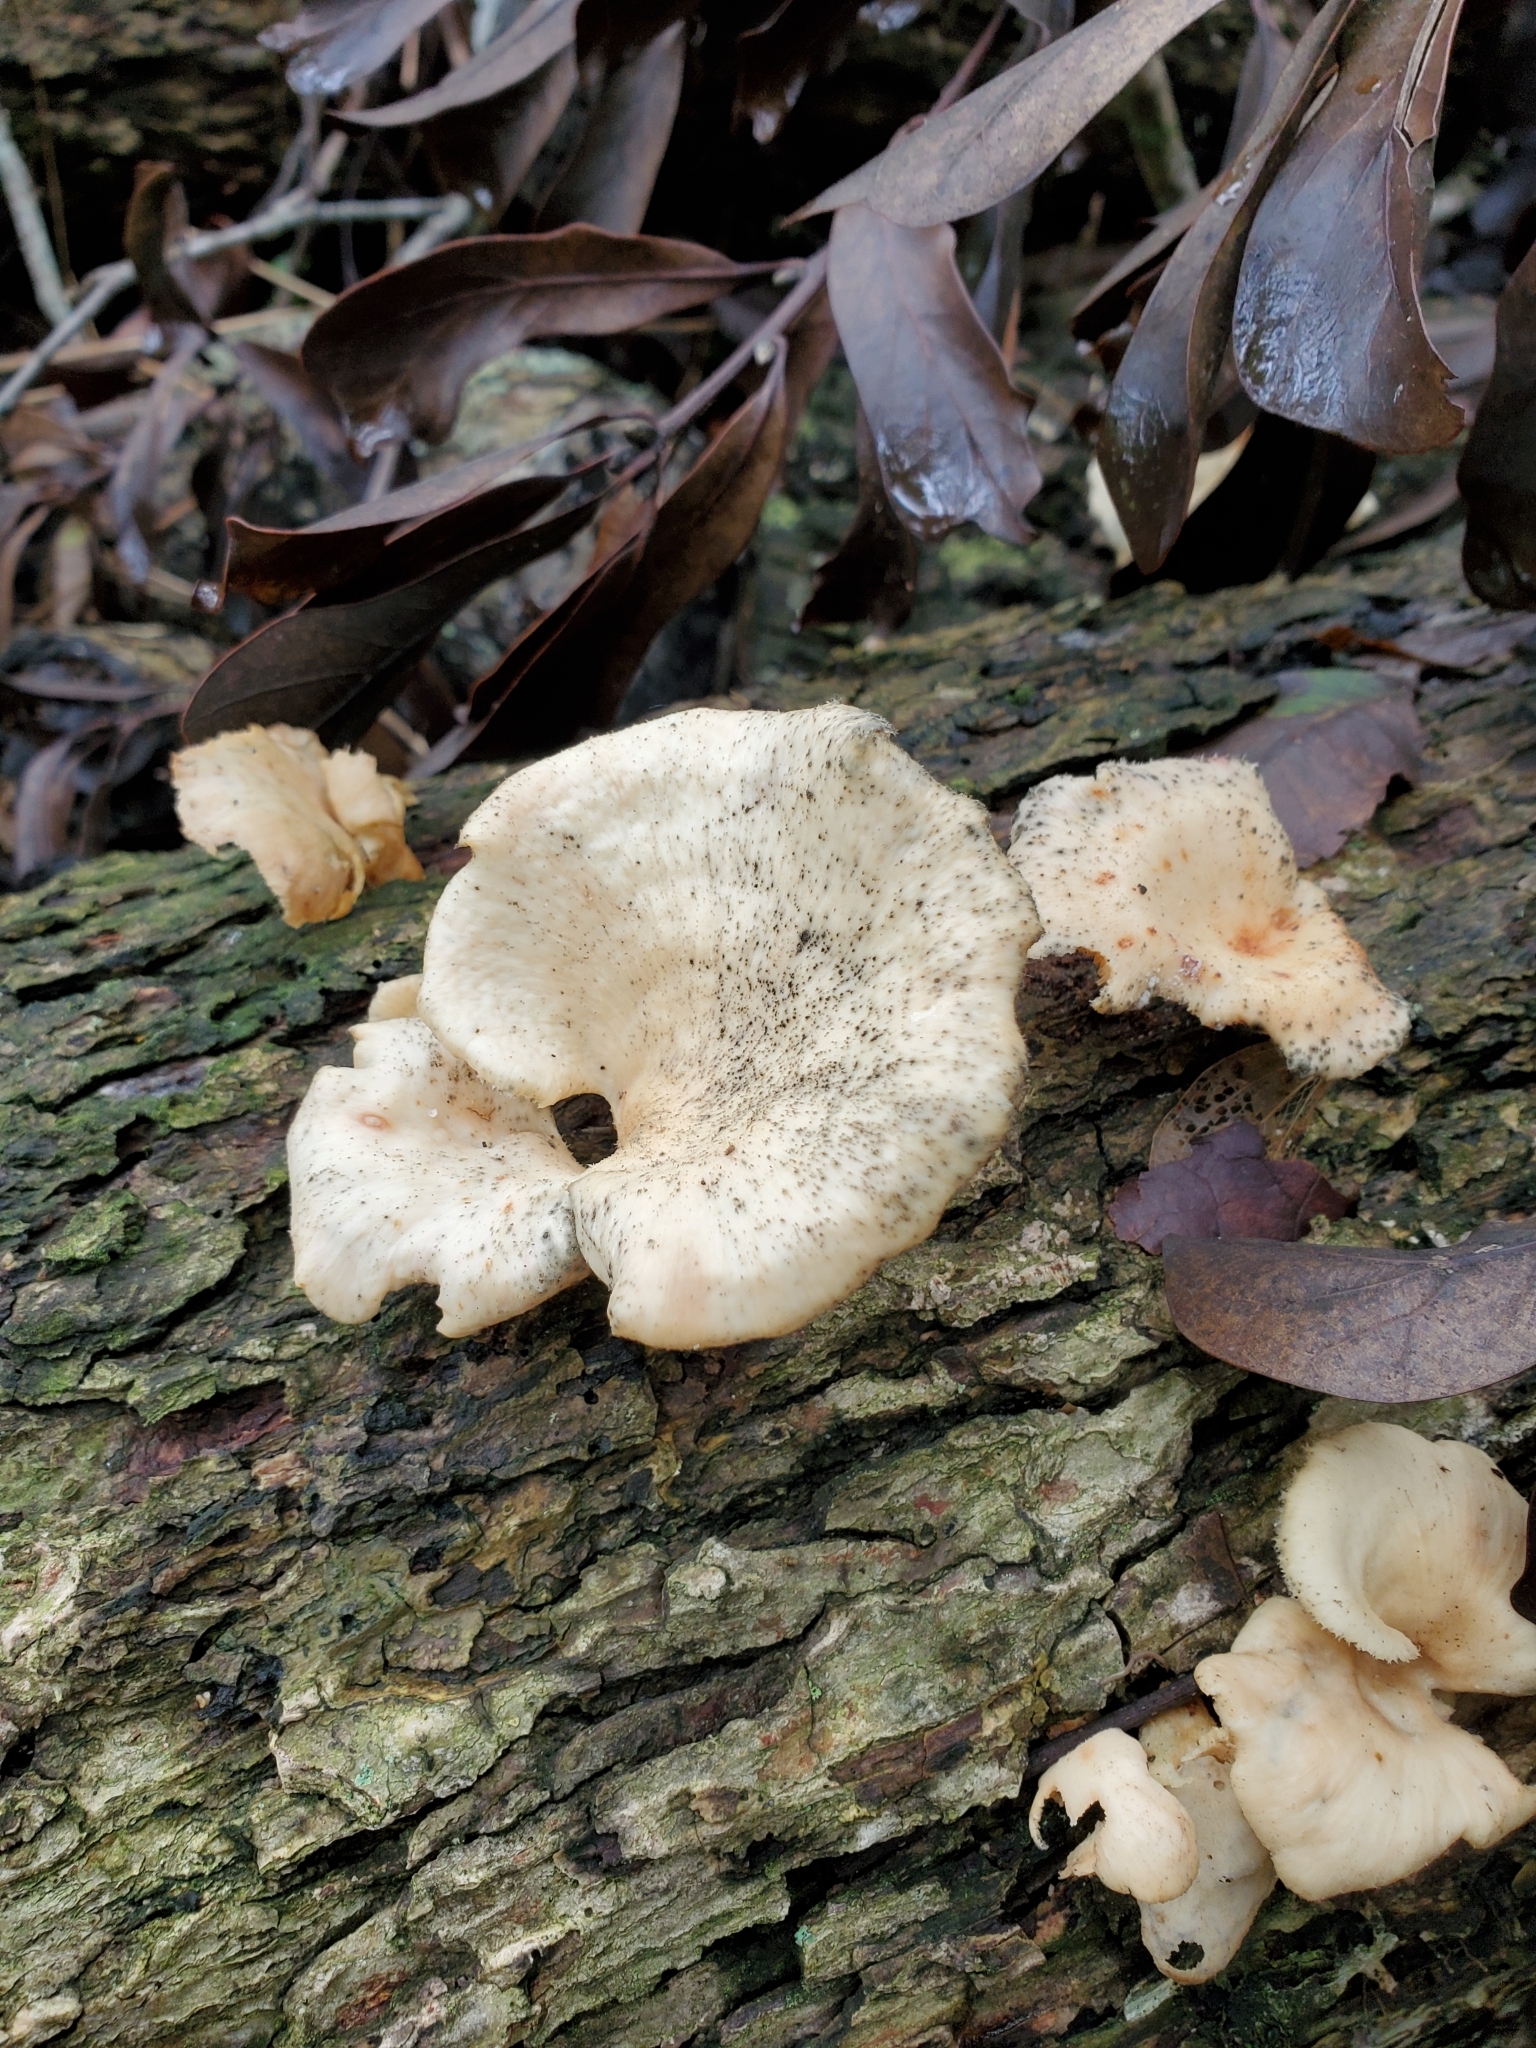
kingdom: Fungi
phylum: Basidiomycota
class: Agaricomycetes
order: Polyporales
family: Polyporaceae
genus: Favolus
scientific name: Favolus tenuiculus
